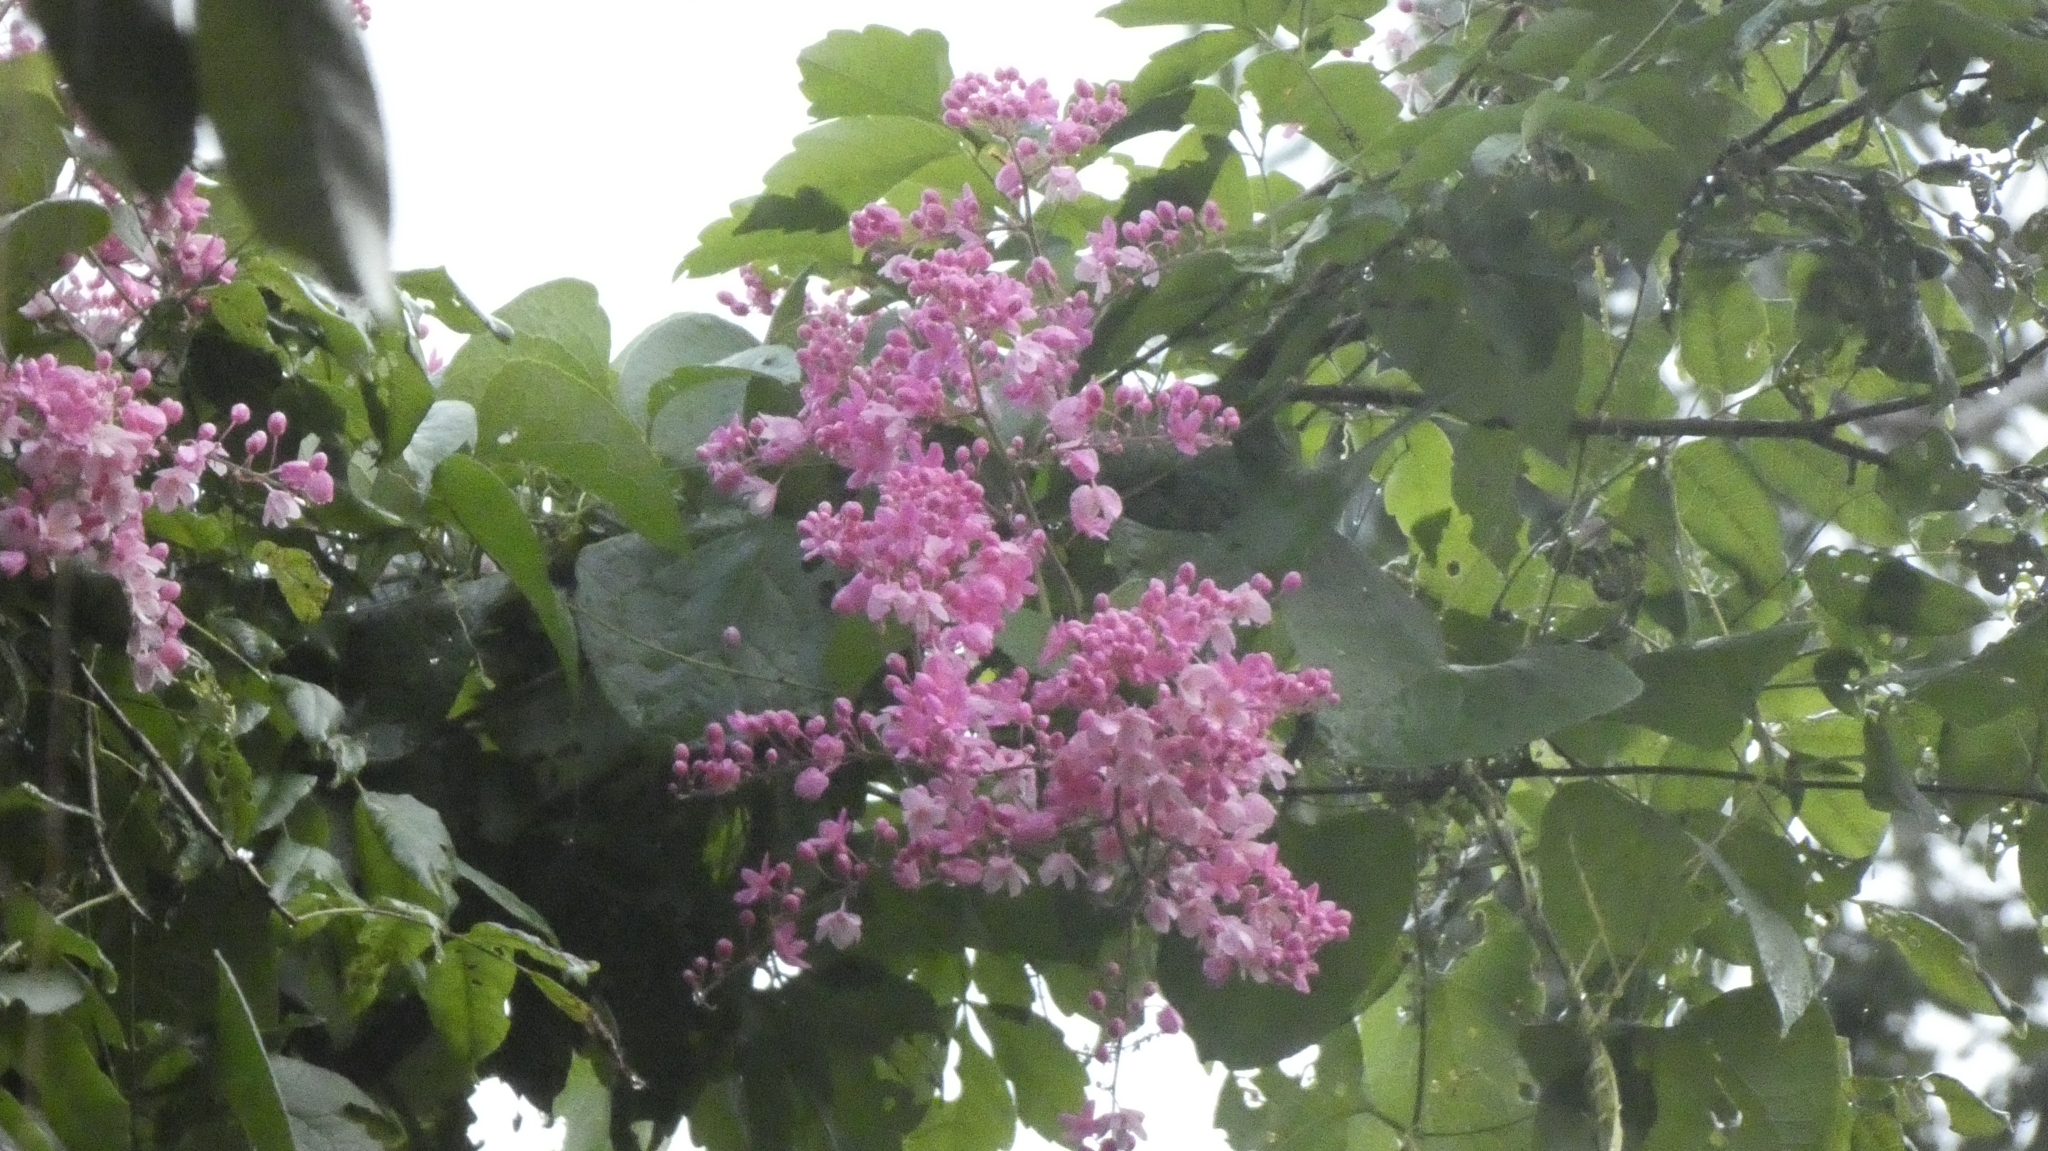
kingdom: Plantae
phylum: Tracheophyta
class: Magnoliopsida
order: Caryophyllales
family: Polygonaceae
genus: Antigonon
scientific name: Antigonon leptopus
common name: Coral vine
